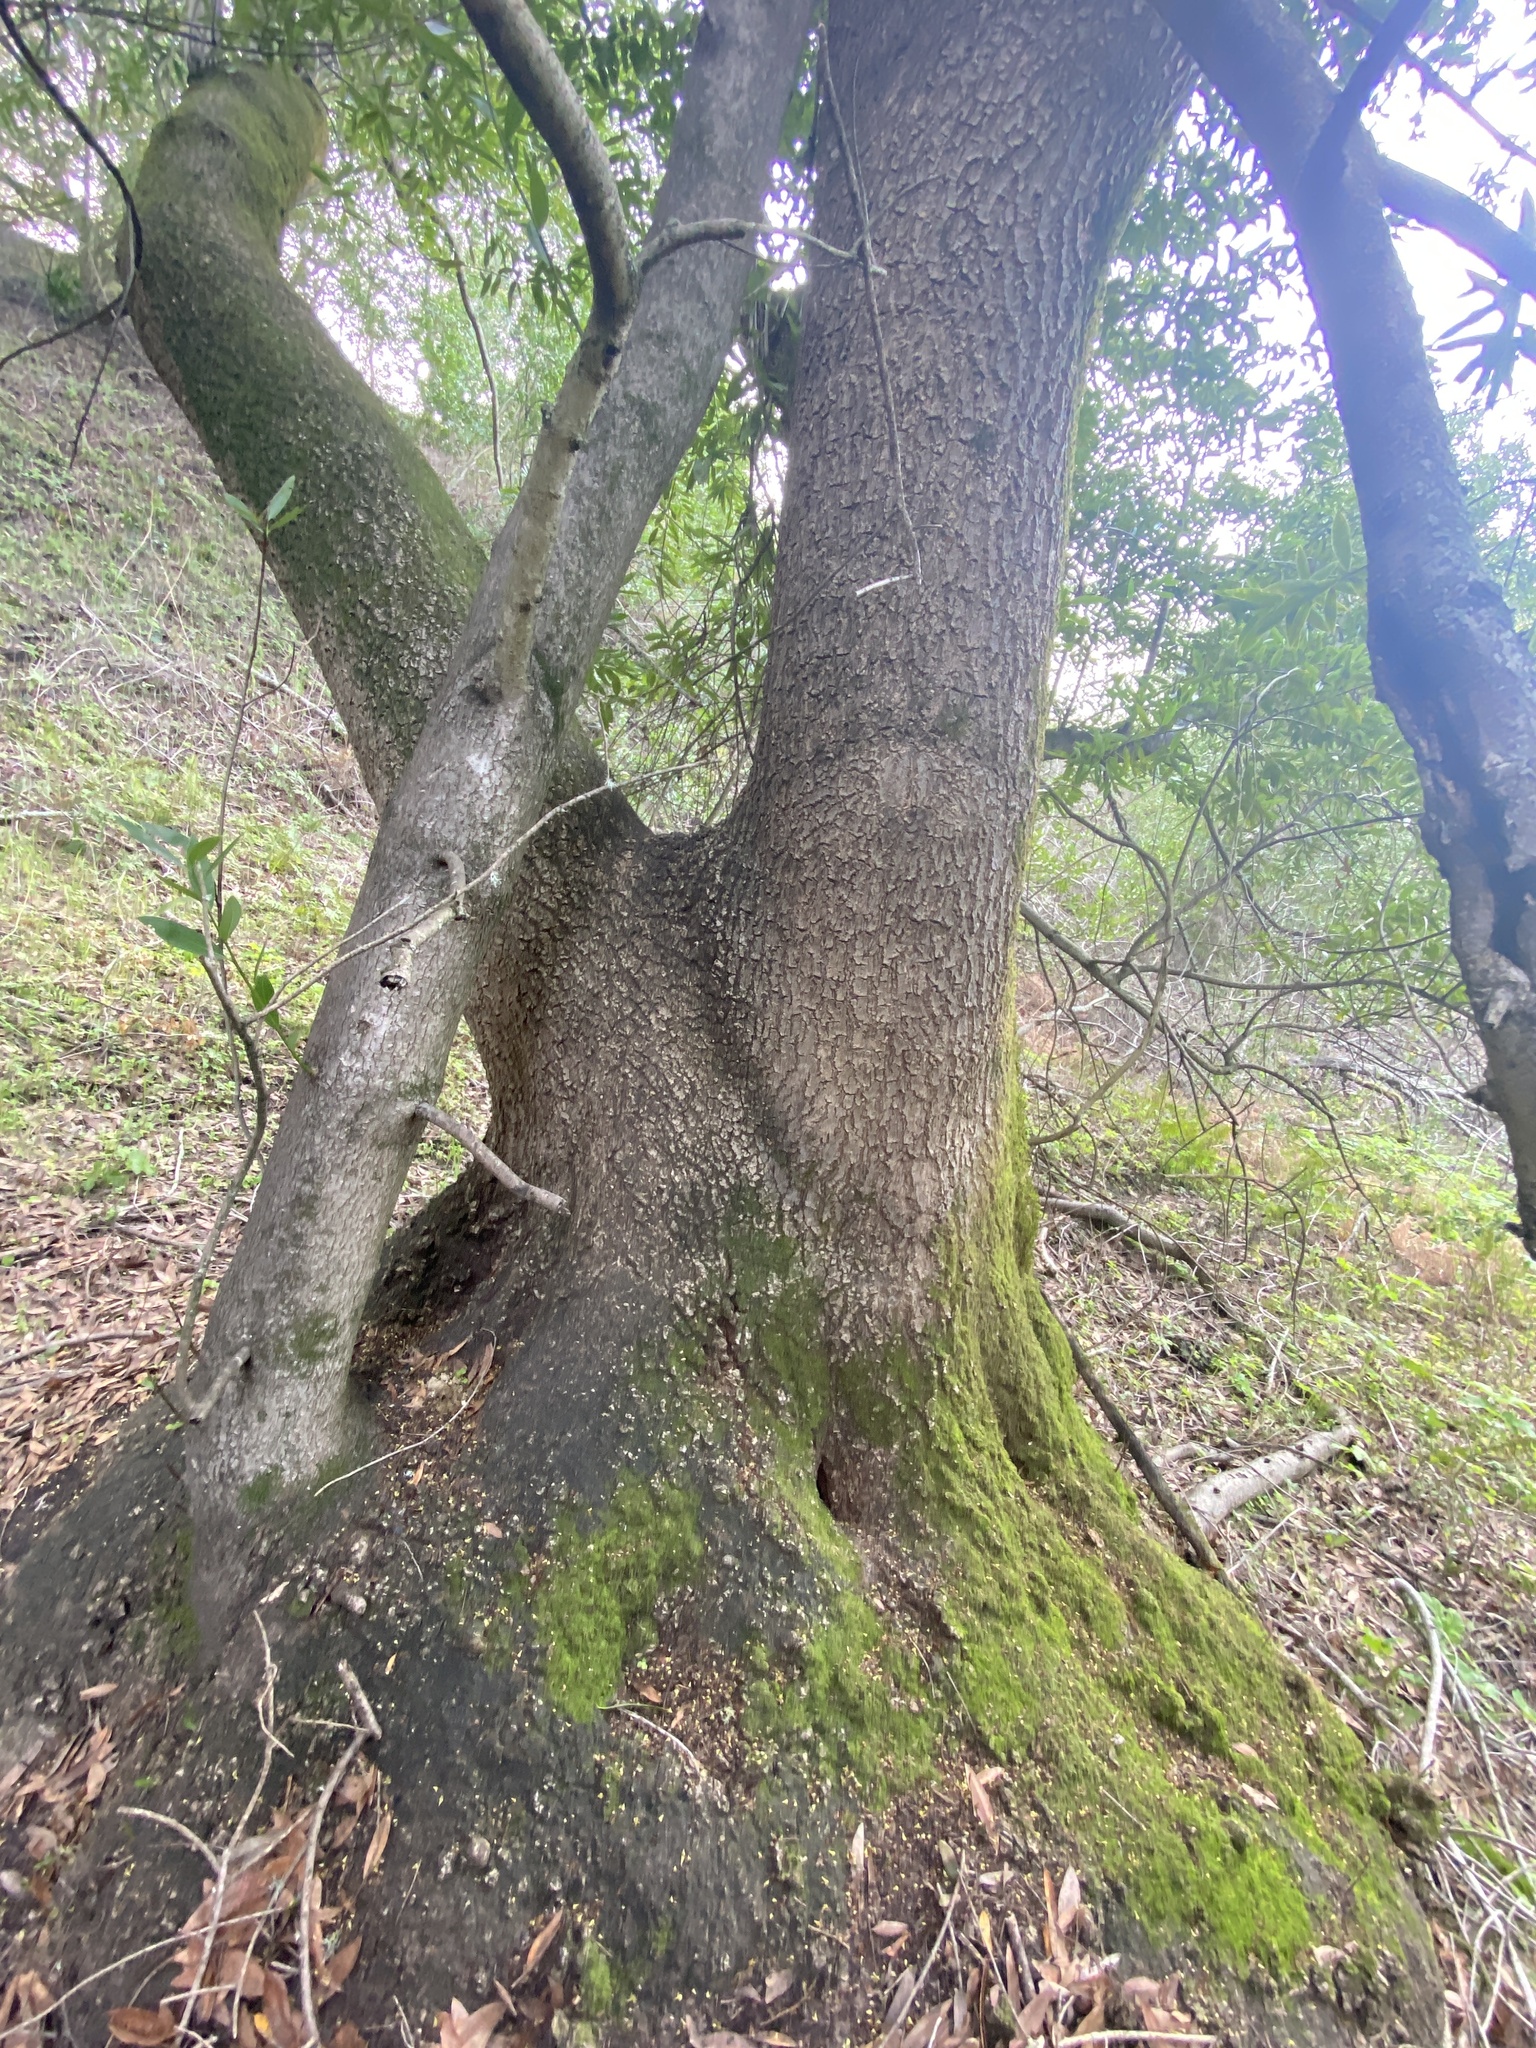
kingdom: Plantae
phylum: Tracheophyta
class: Magnoliopsida
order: Laurales
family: Lauraceae
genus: Umbellularia
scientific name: Umbellularia californica
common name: California bay
